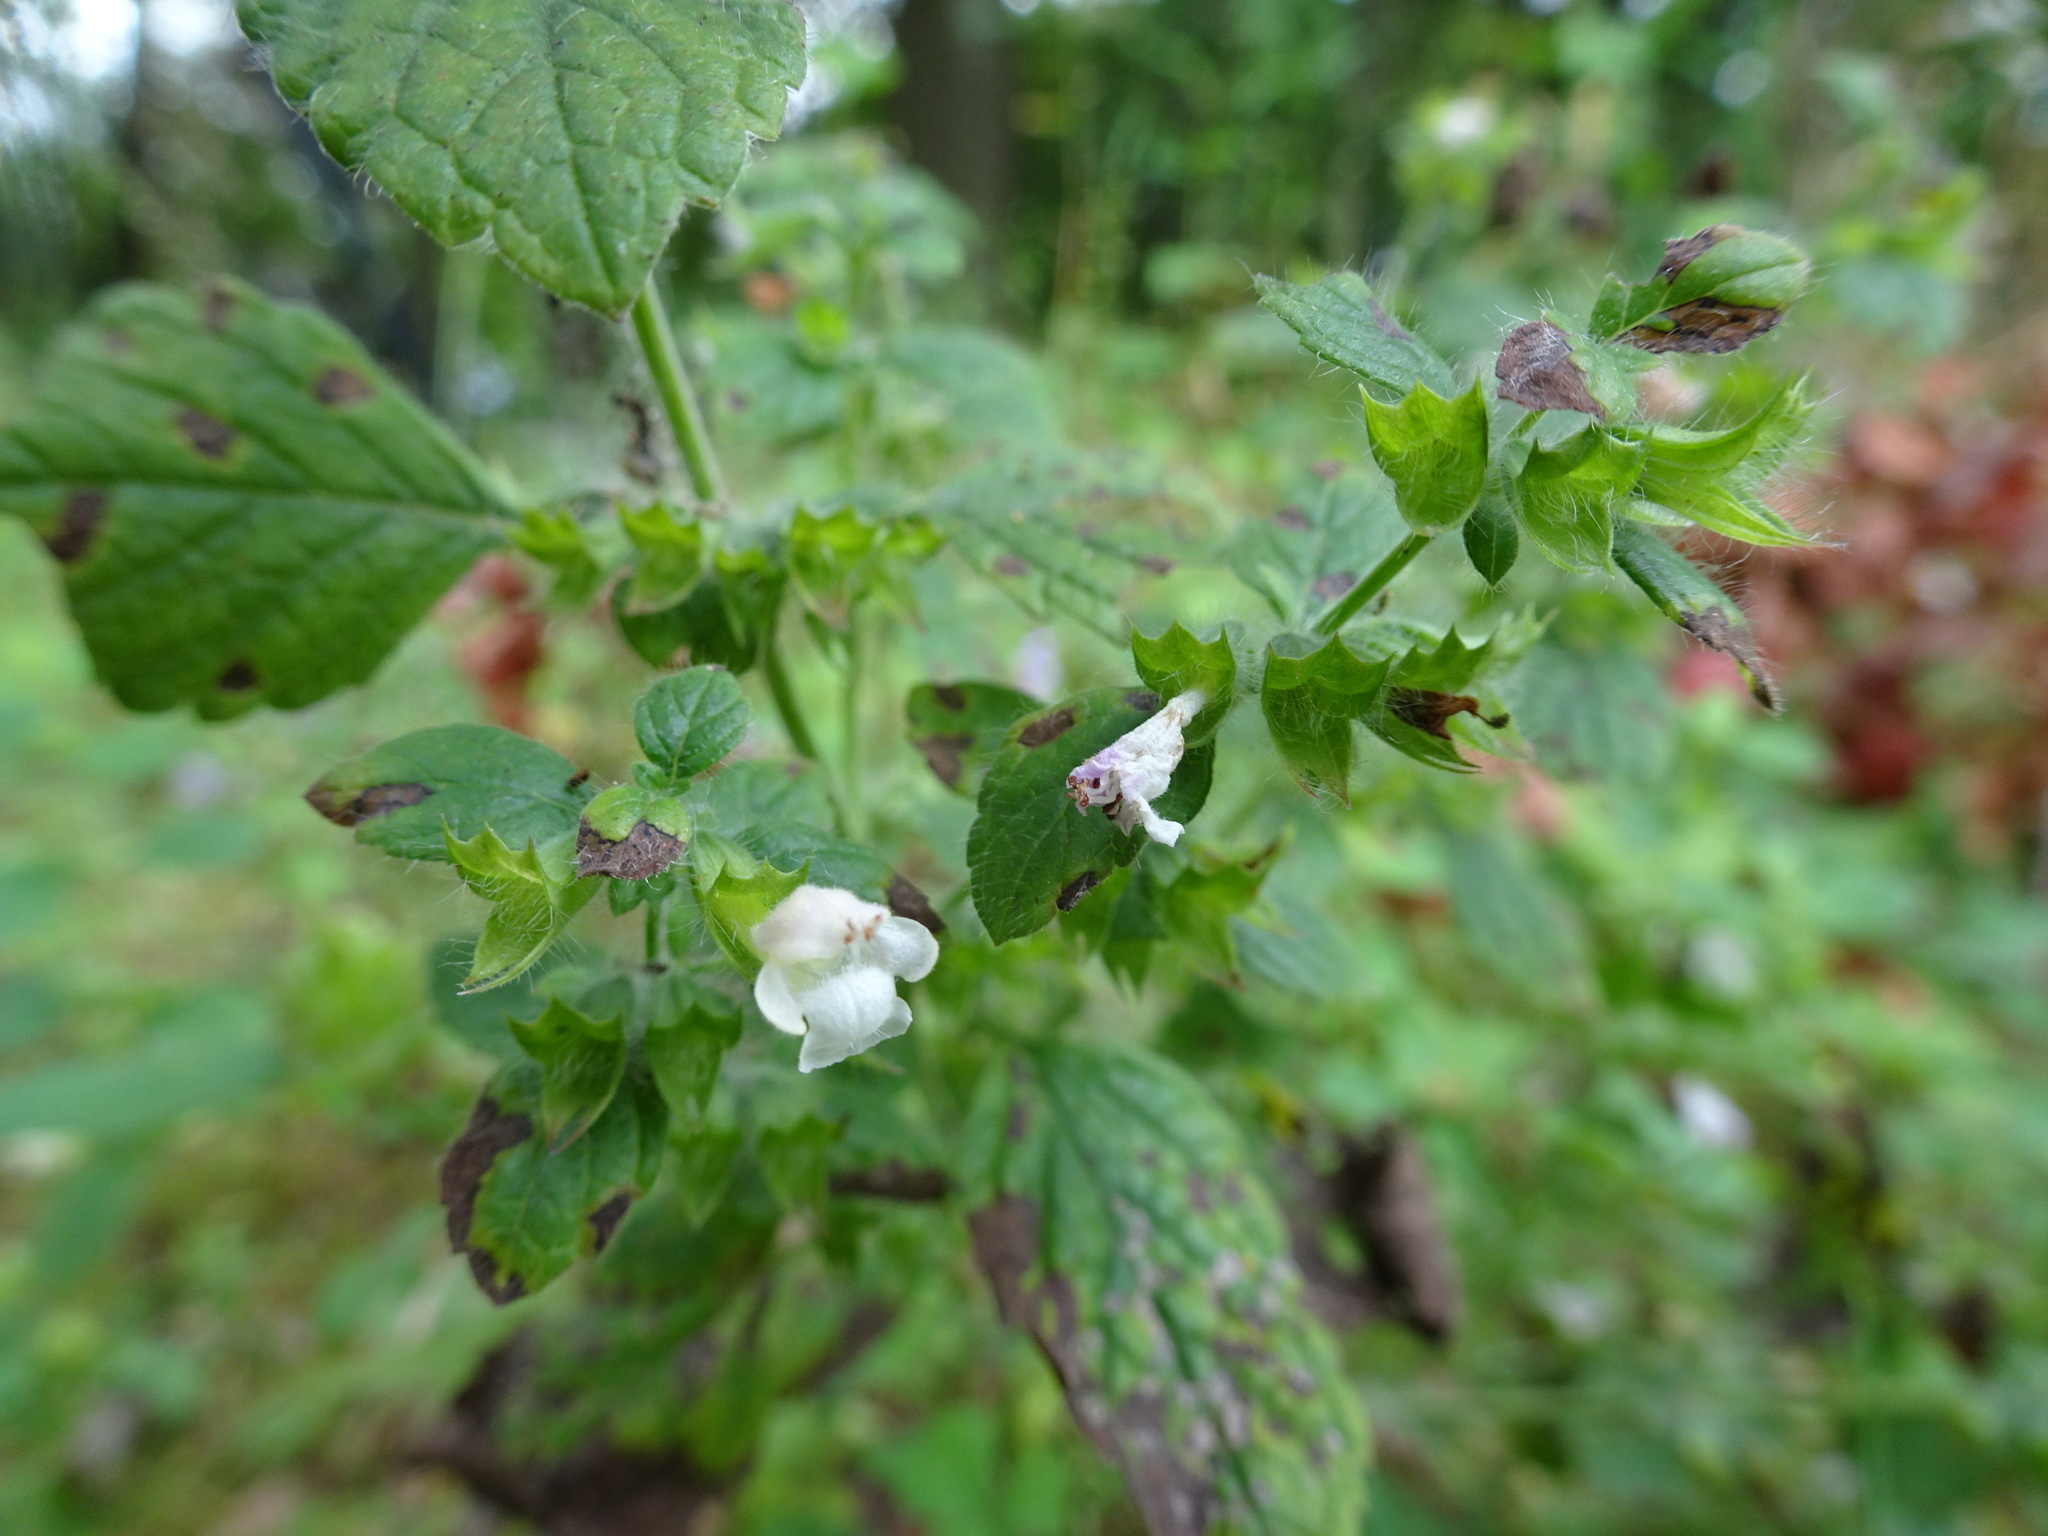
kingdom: Plantae
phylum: Tracheophyta
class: Magnoliopsida
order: Lamiales
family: Lamiaceae
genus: Melissa
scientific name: Melissa officinalis
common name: Balm
